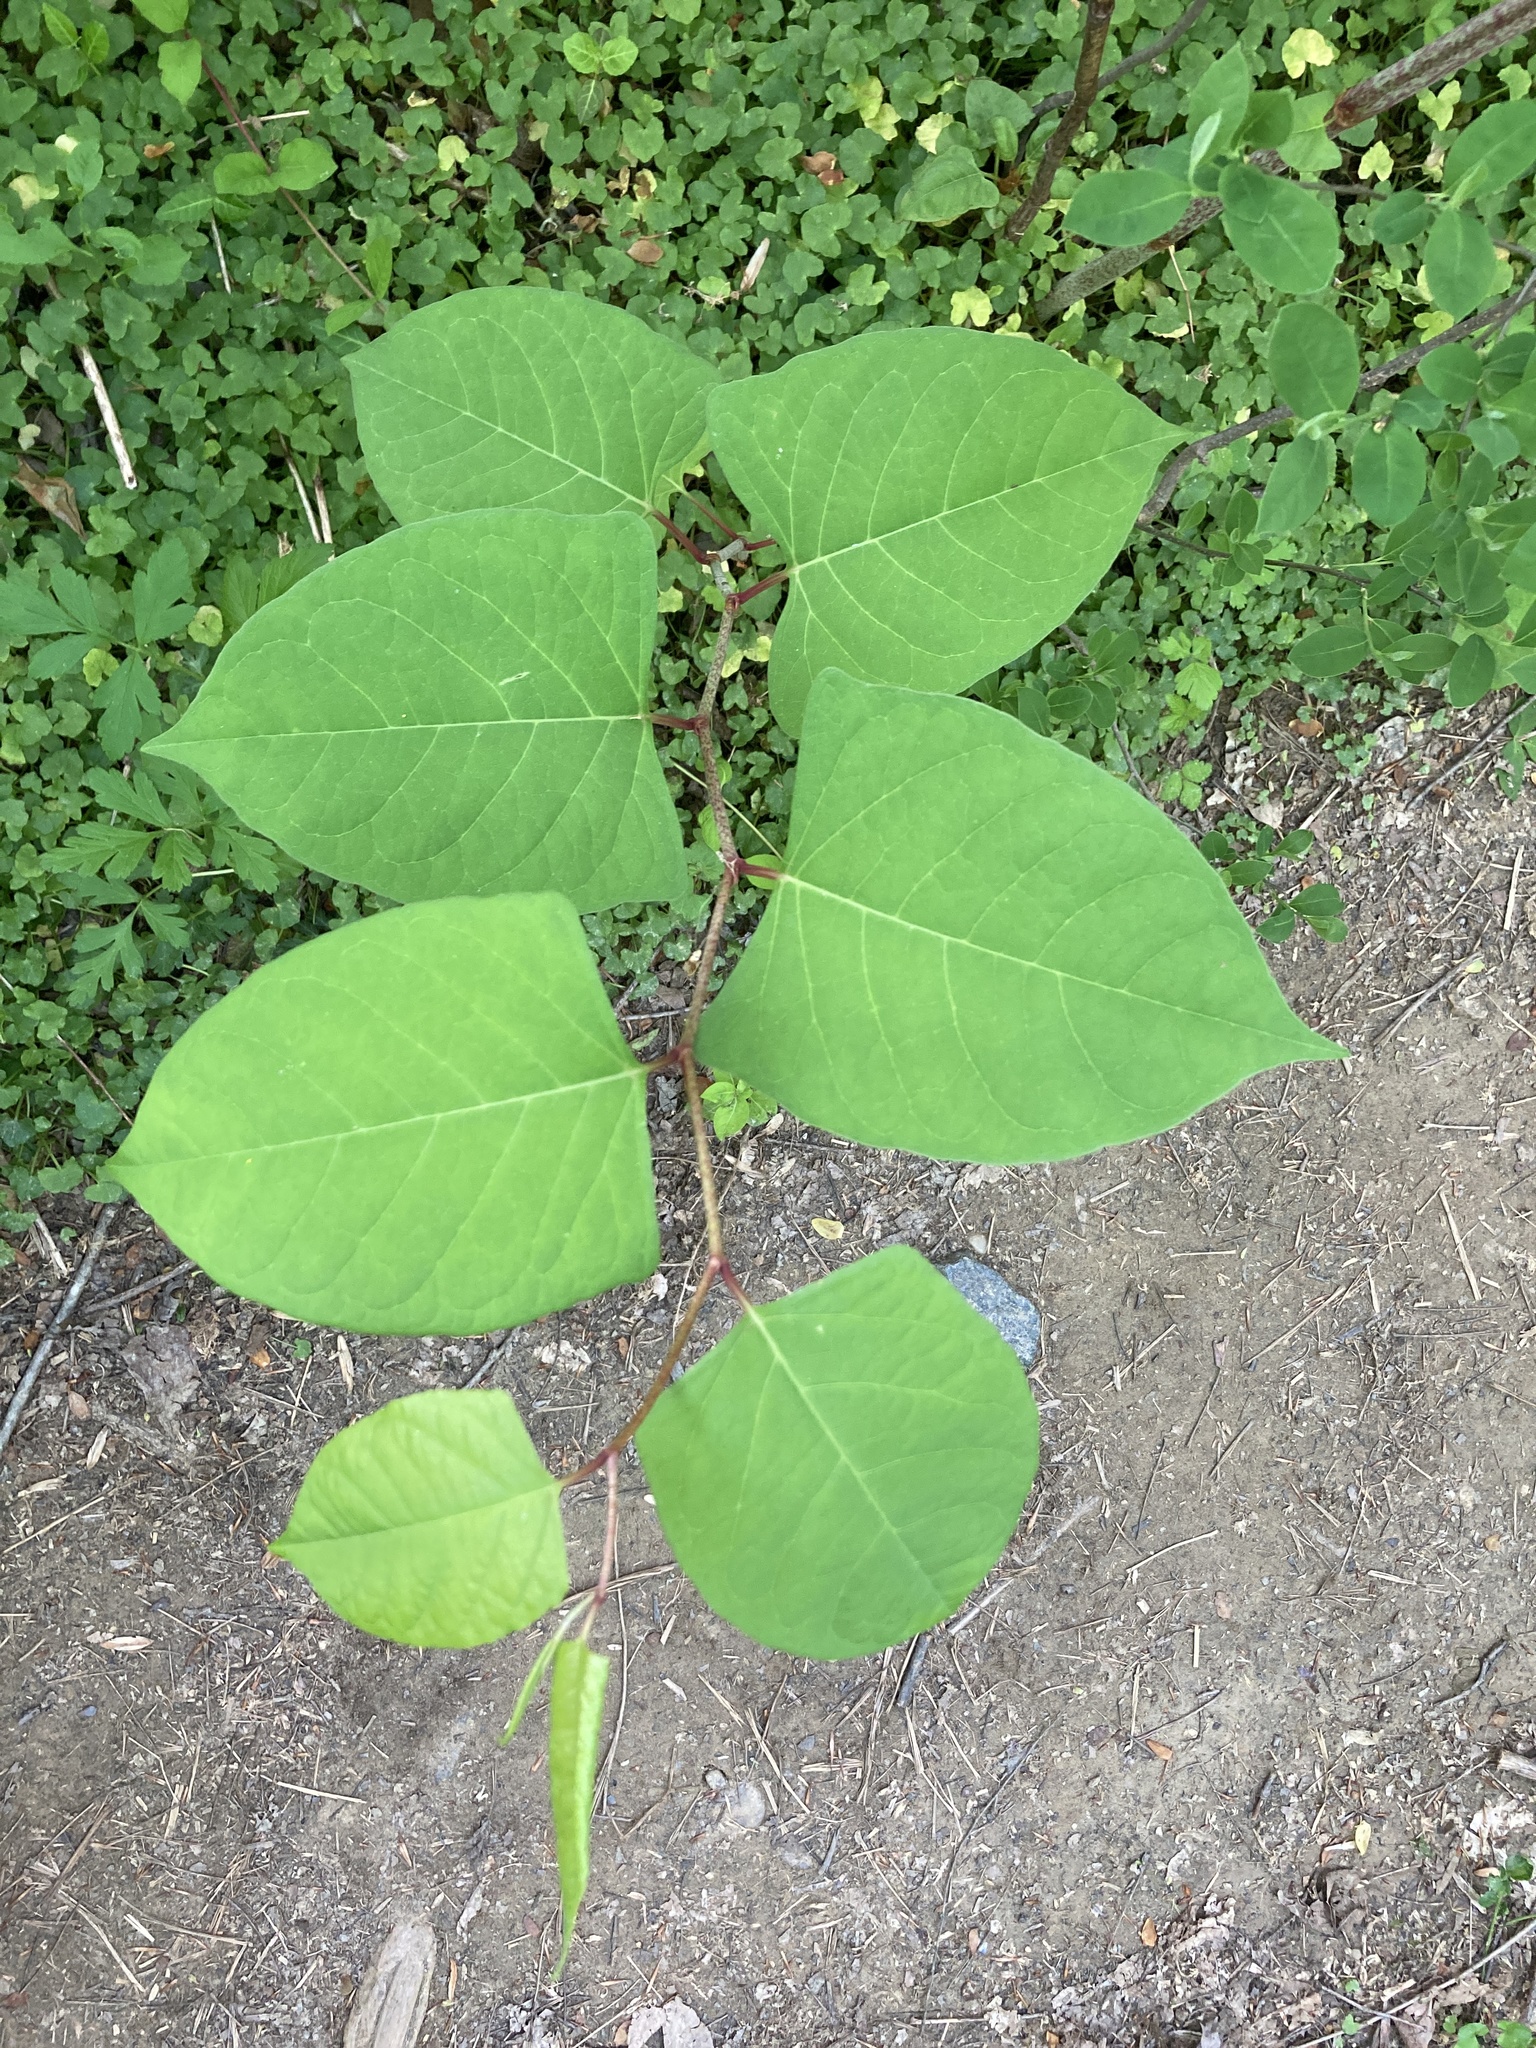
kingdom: Plantae
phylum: Tracheophyta
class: Magnoliopsida
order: Caryophyllales
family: Polygonaceae
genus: Reynoutria
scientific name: Reynoutria japonica
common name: Japanese knotweed
